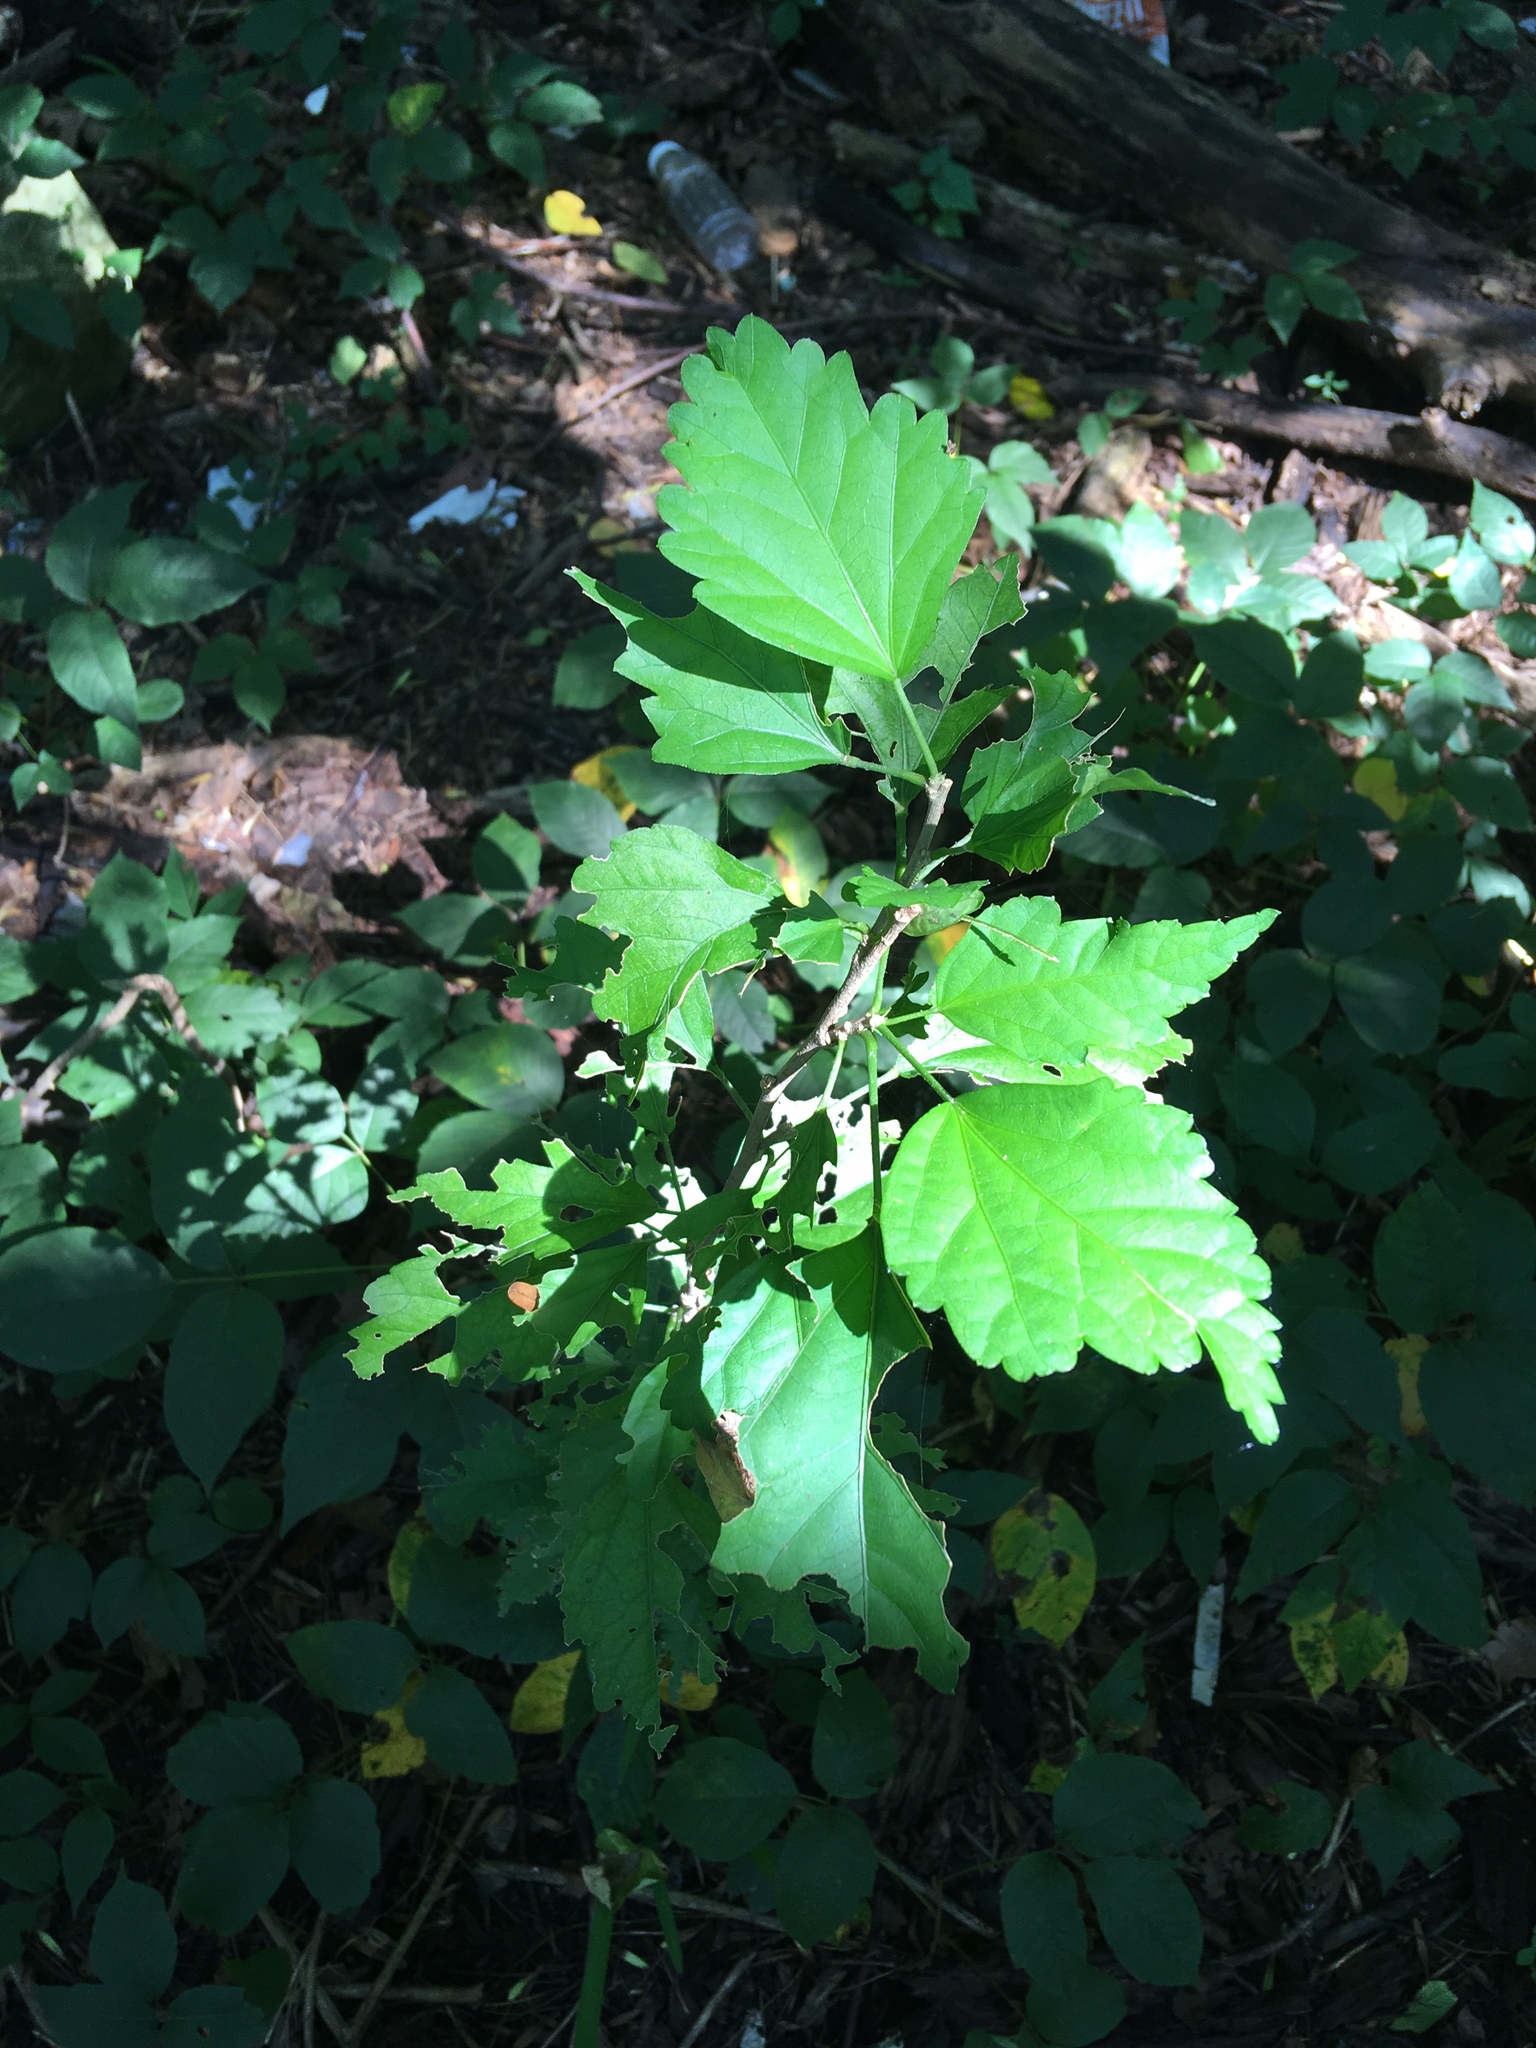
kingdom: Plantae
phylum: Tracheophyta
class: Magnoliopsida
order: Malvales
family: Malvaceae
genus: Hibiscus
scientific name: Hibiscus syriacus
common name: Syrian ketmia
